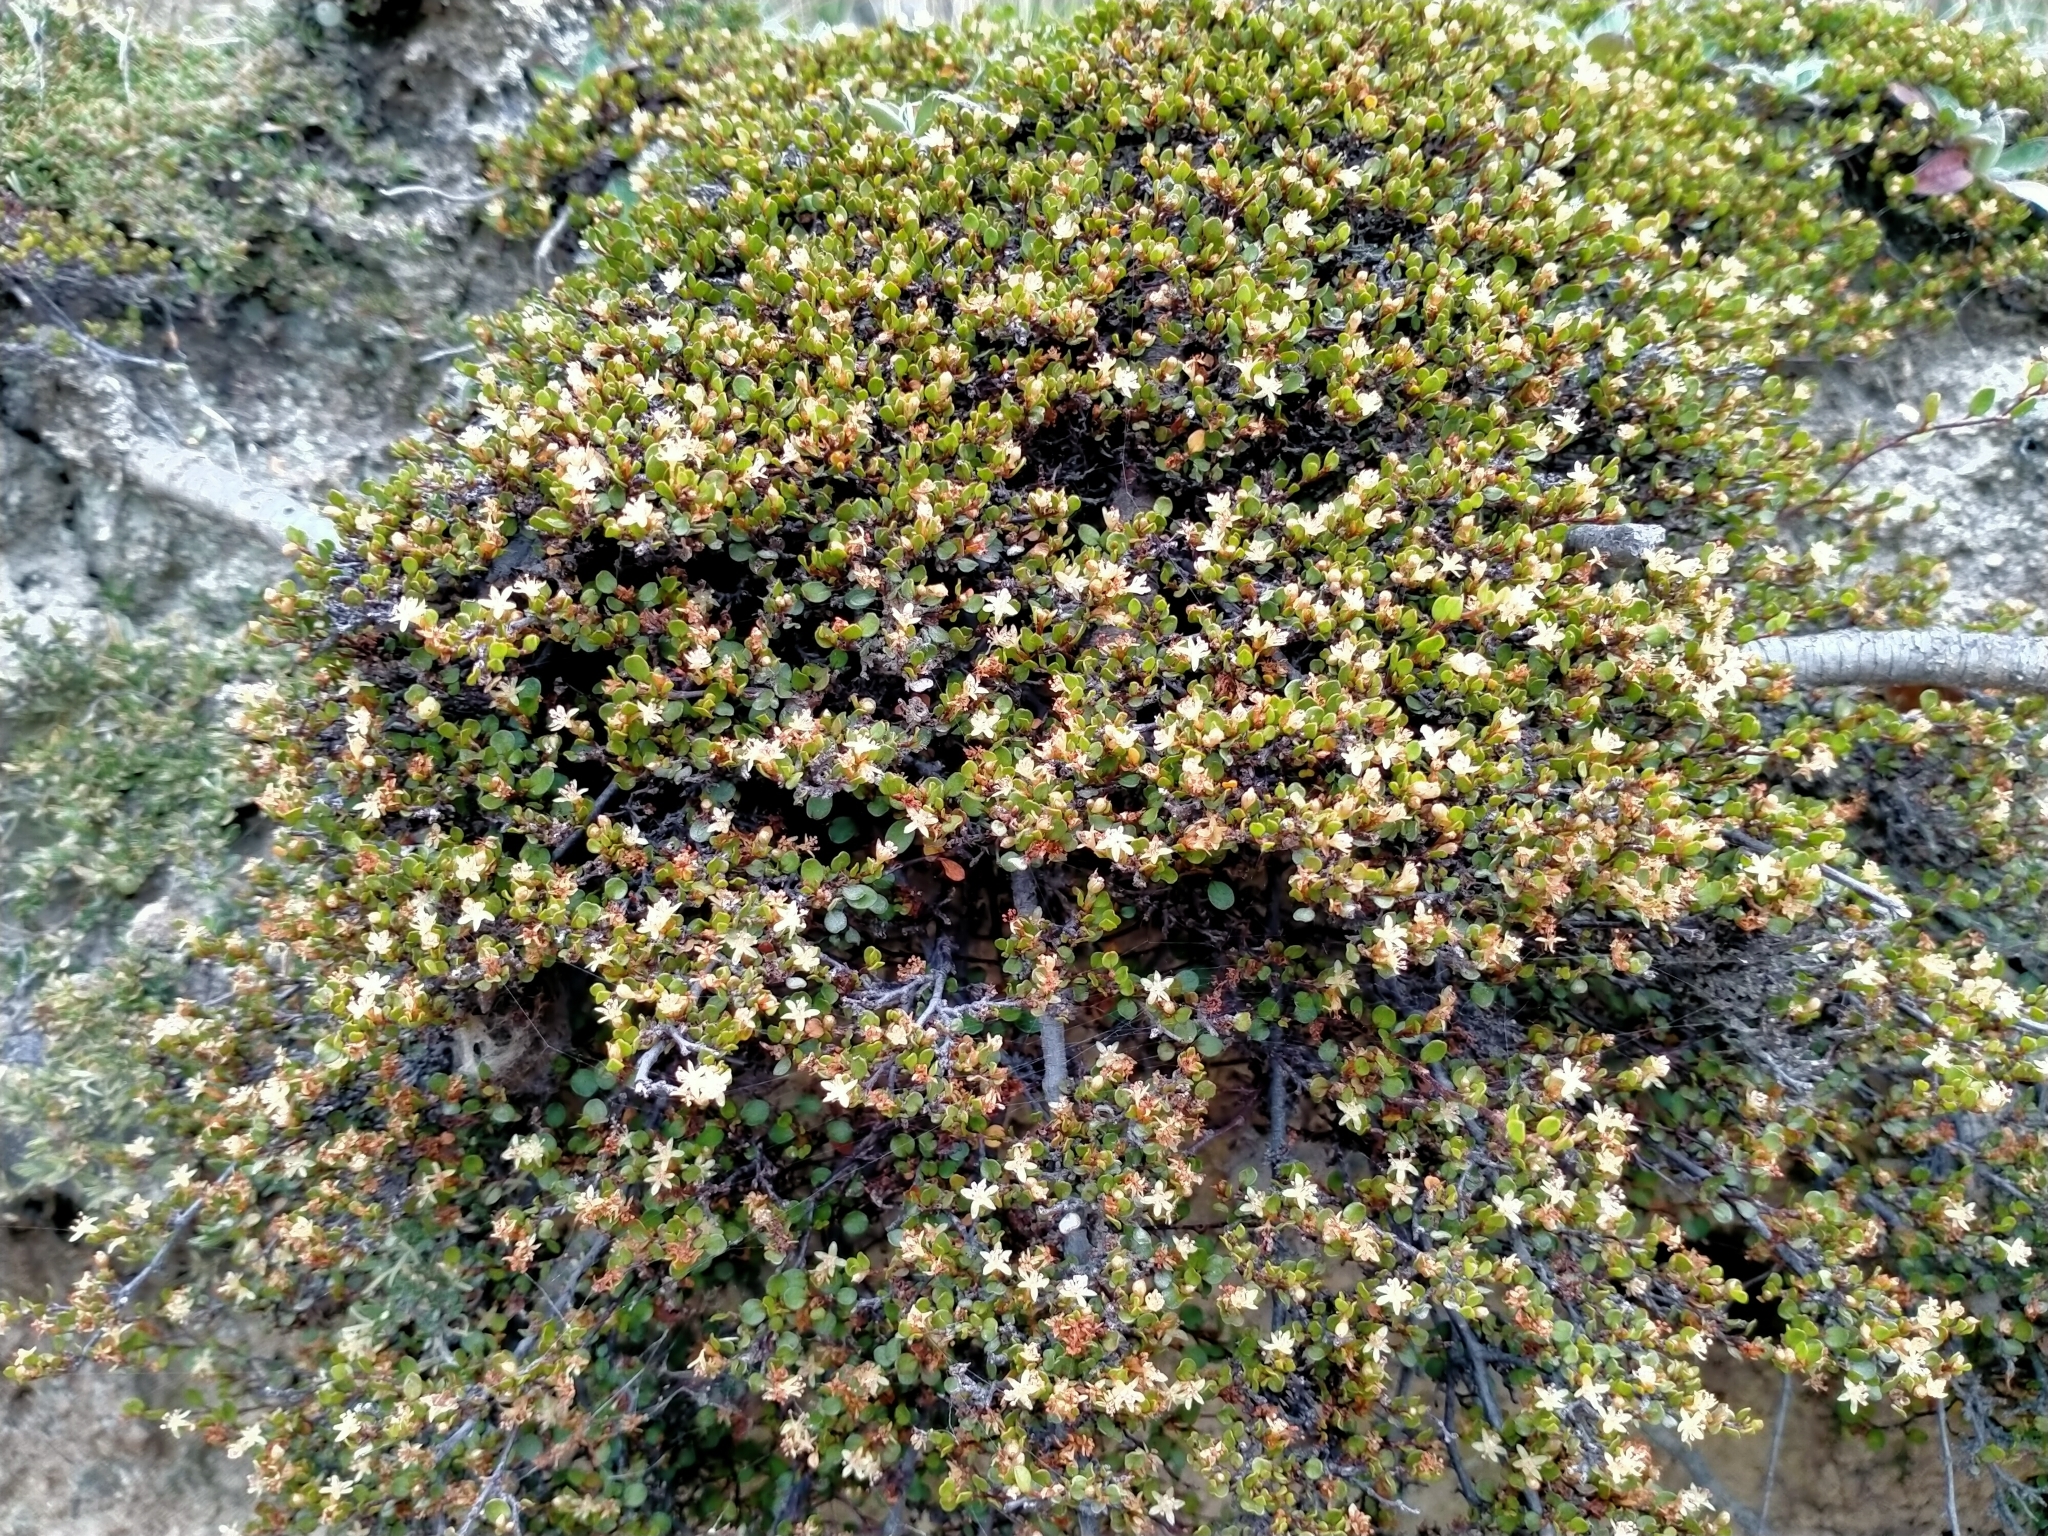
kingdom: Plantae
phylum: Tracheophyta
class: Magnoliopsida
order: Caryophyllales
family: Polygonaceae
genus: Muehlenbeckia
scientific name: Muehlenbeckia axillaris
